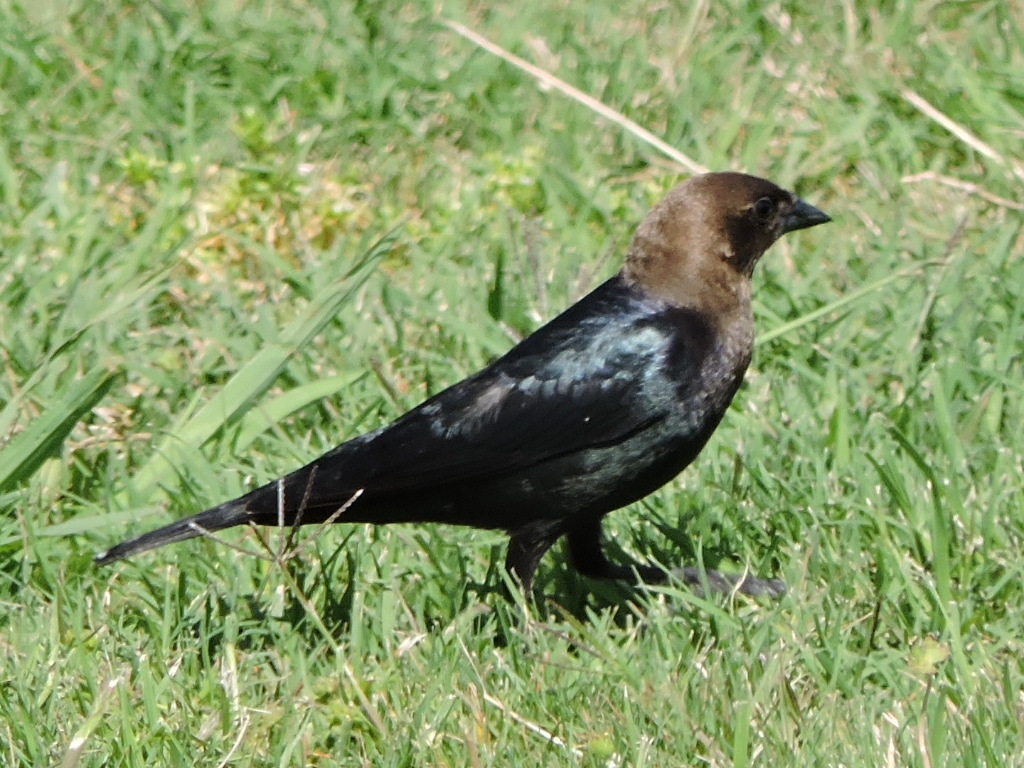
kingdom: Animalia
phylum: Chordata
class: Aves
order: Passeriformes
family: Icteridae
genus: Molothrus
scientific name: Molothrus ater
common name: Brown-headed cowbird
